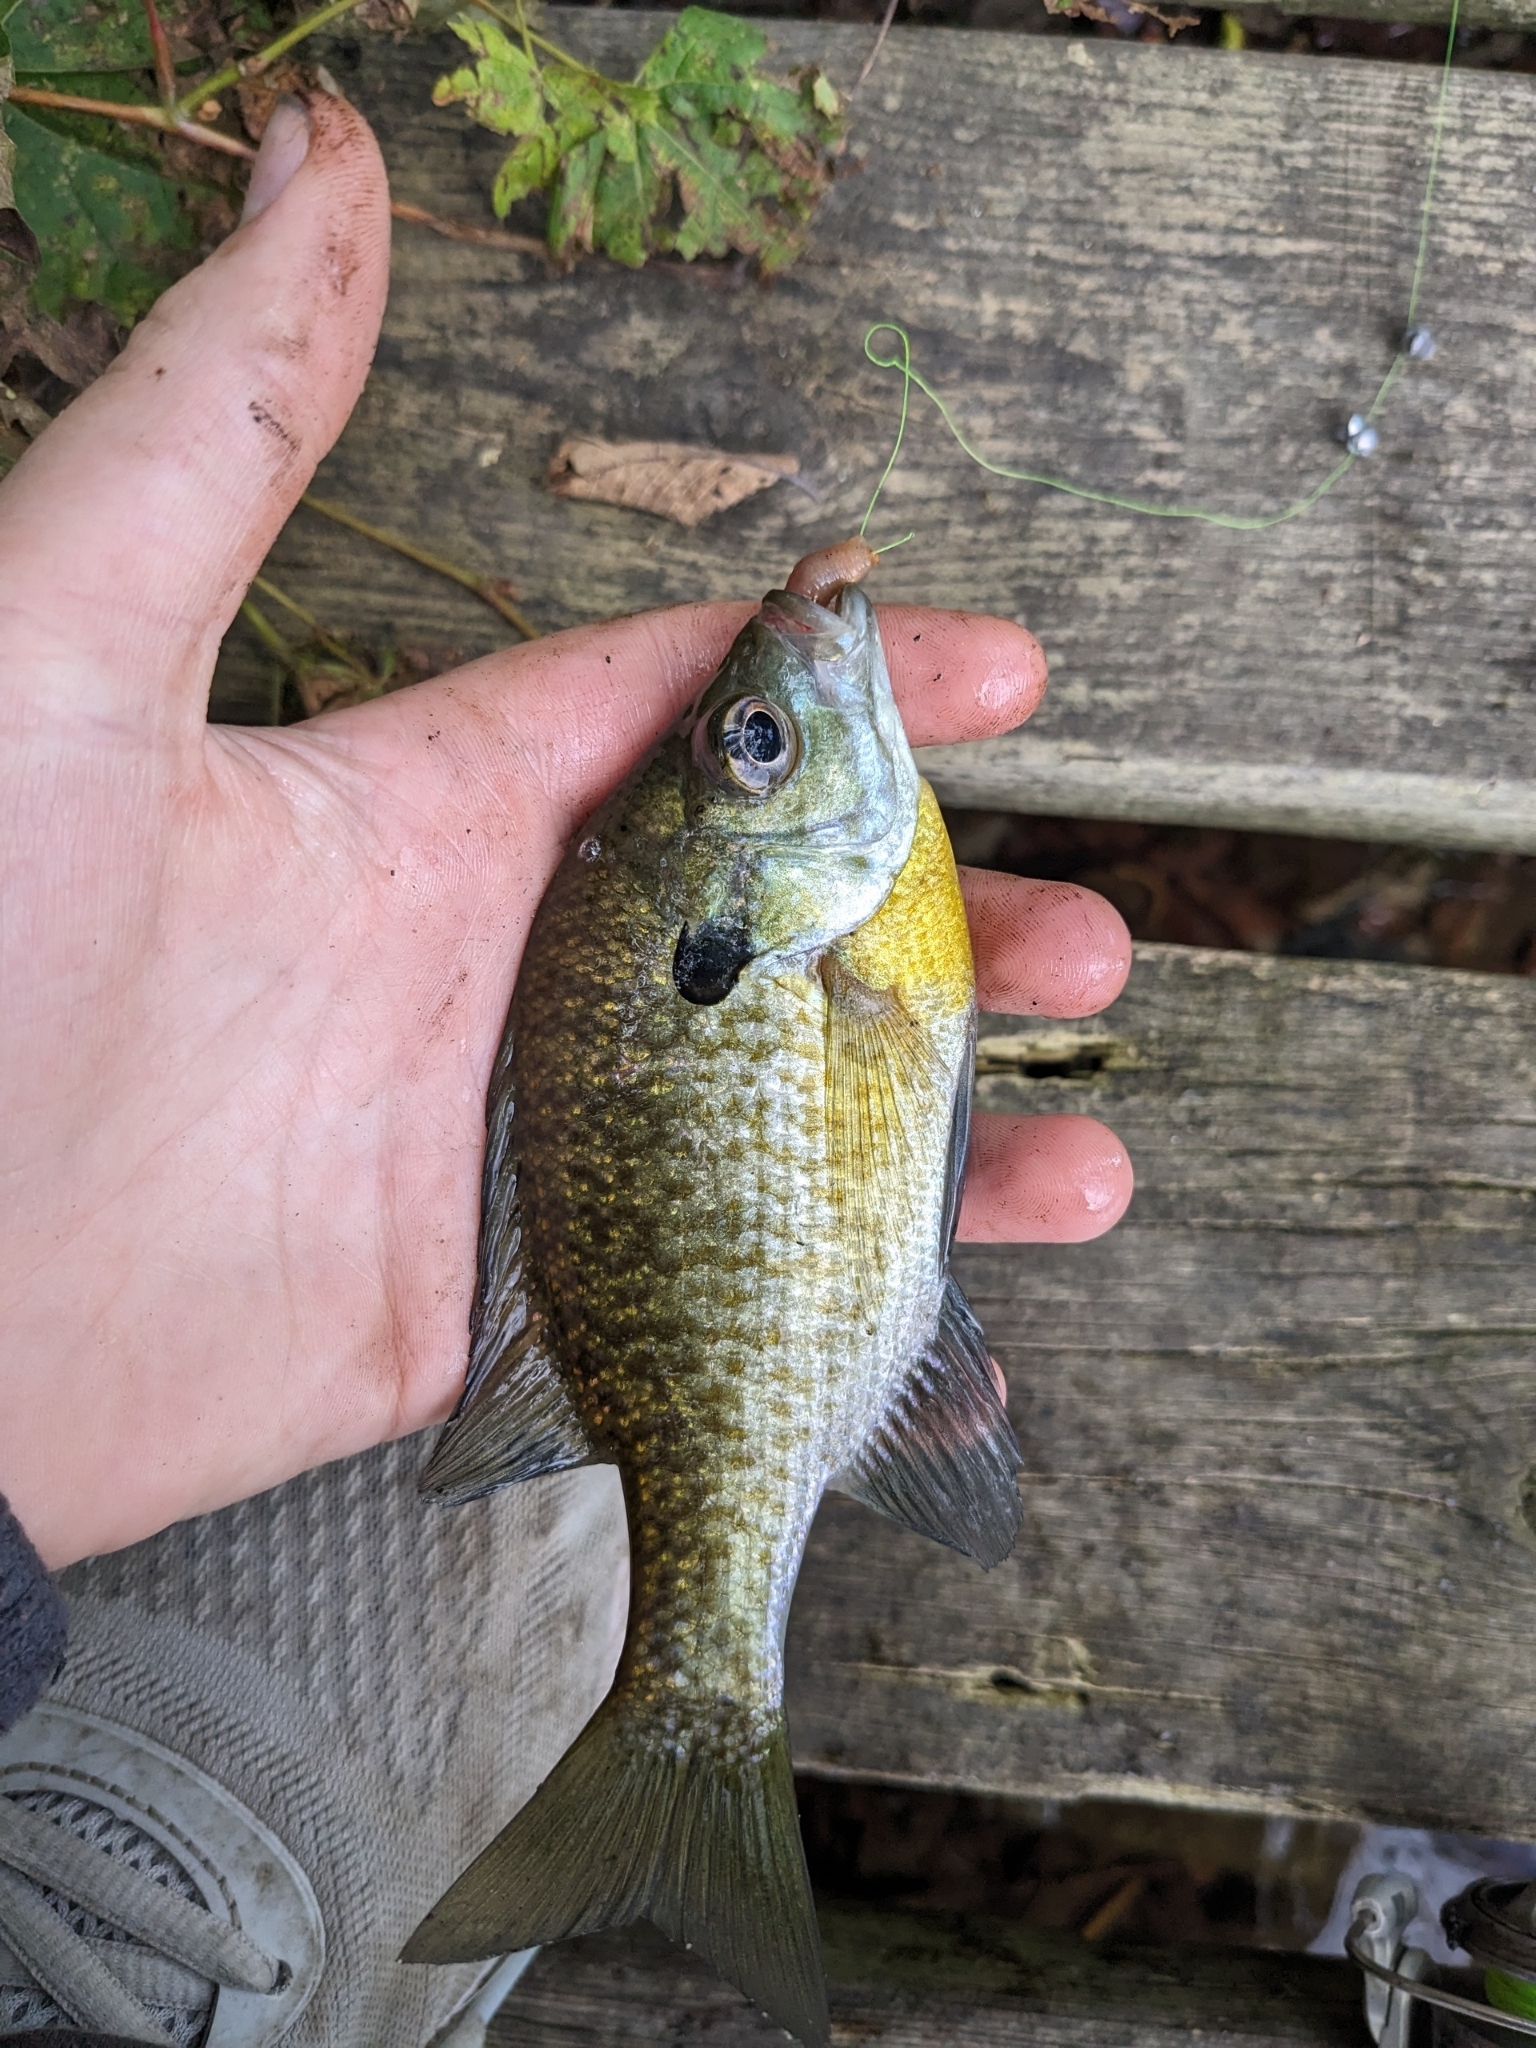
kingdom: Animalia
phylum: Chordata
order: Perciformes
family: Centrarchidae
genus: Lepomis
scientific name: Lepomis macrochirus
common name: Bluegill
